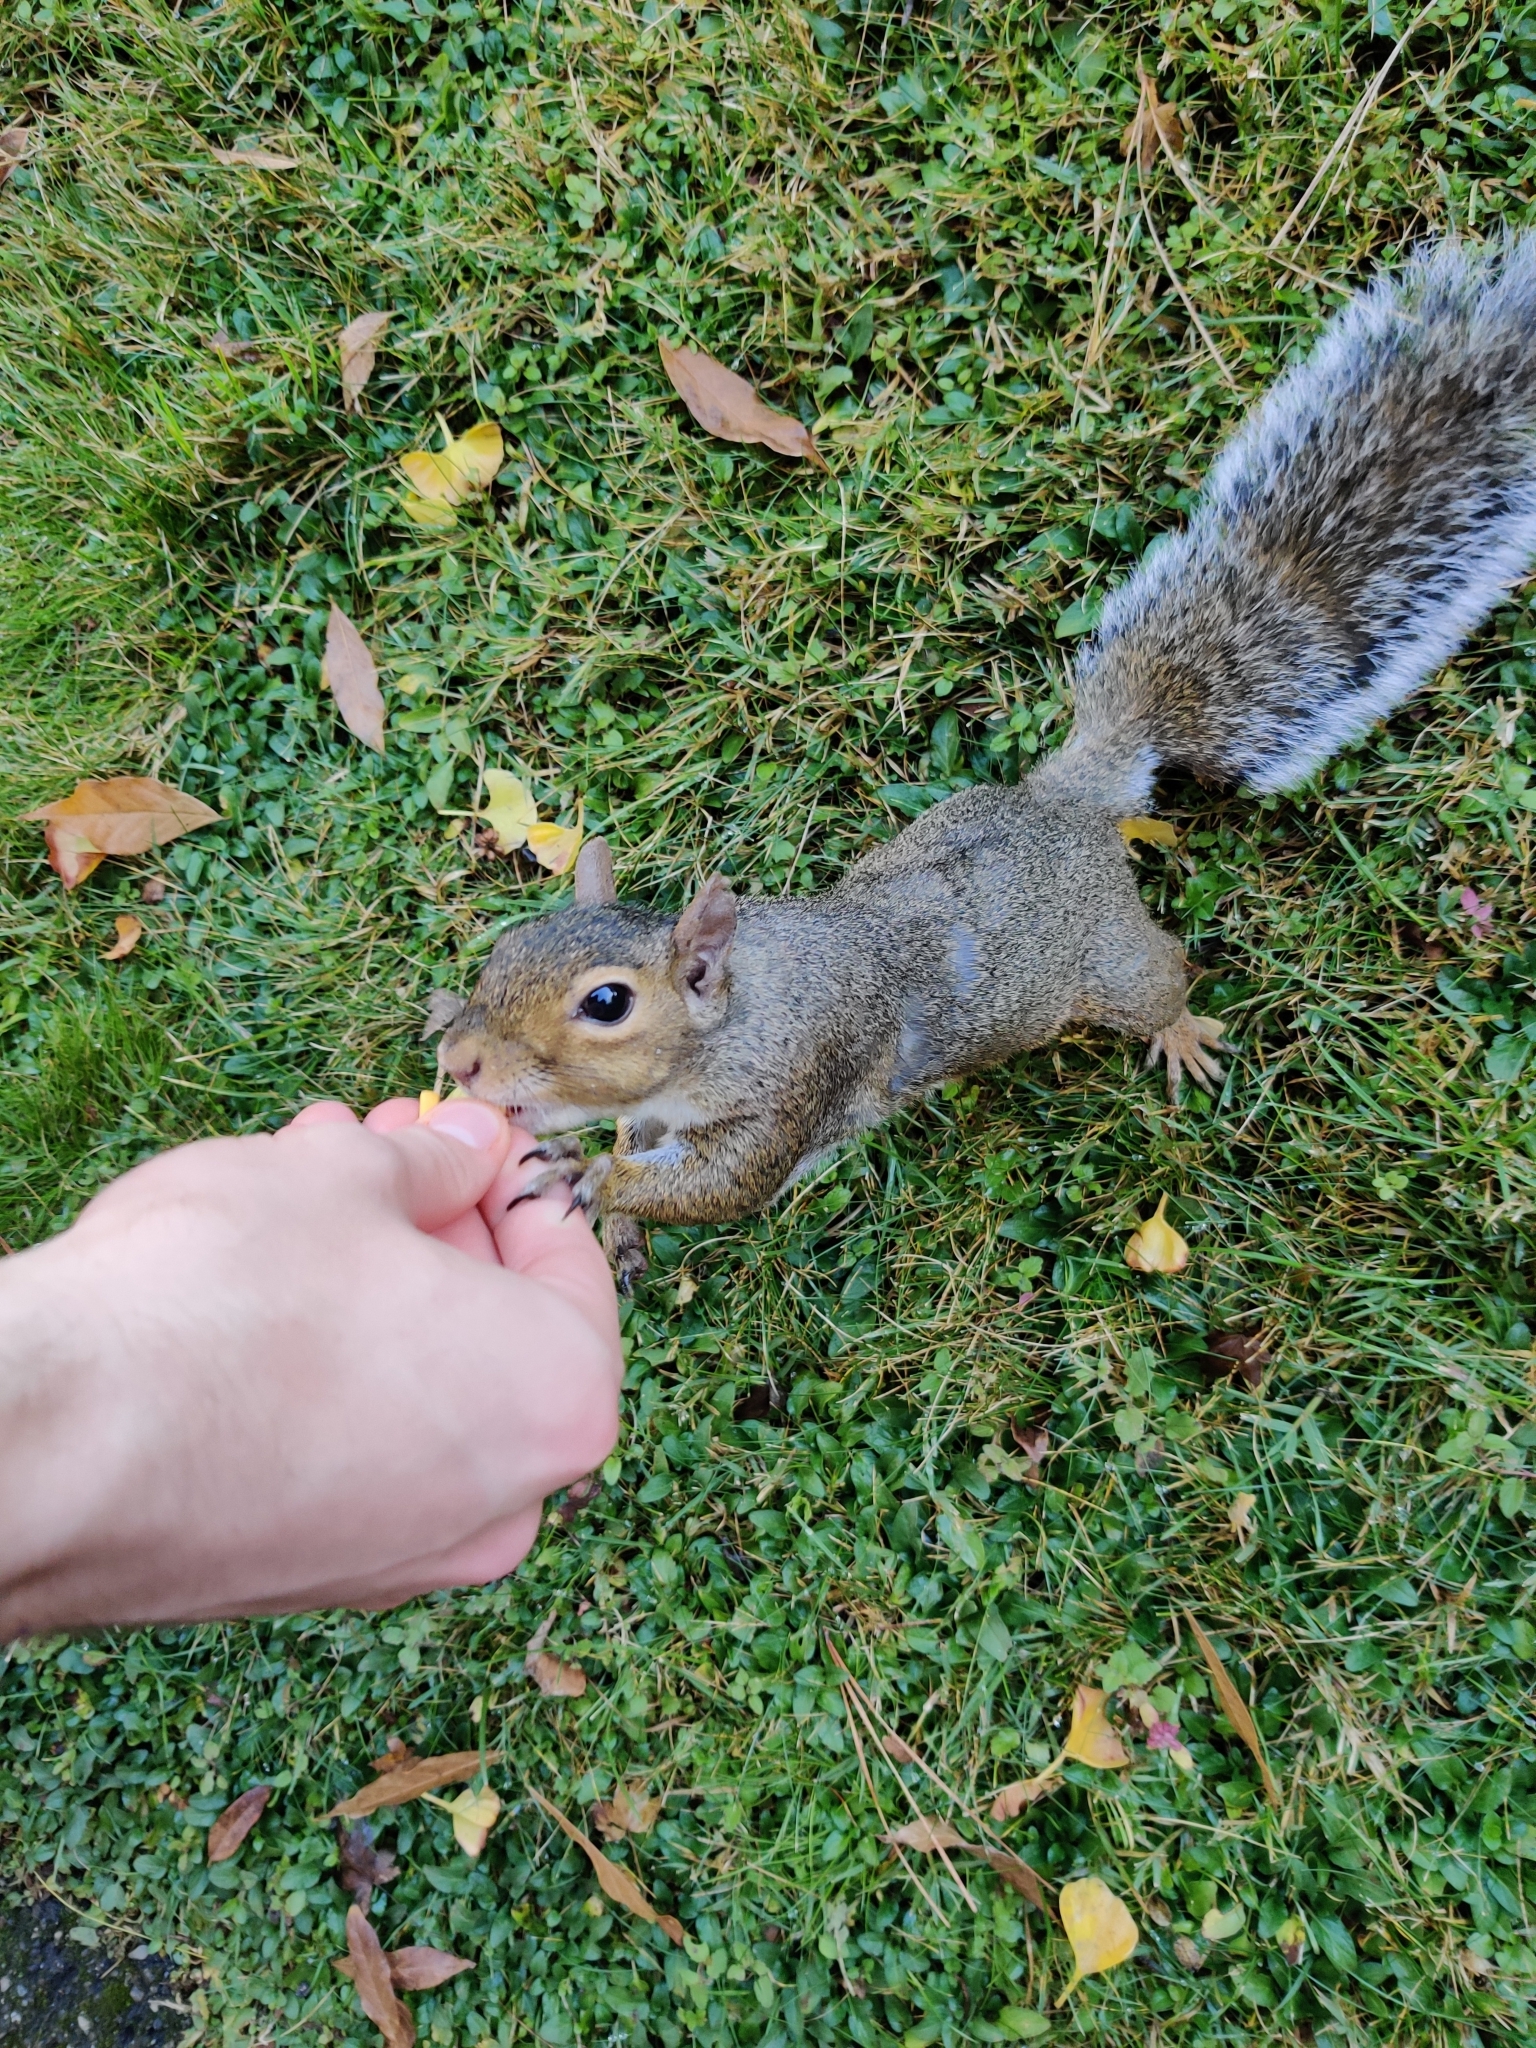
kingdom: Animalia
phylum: Chordata
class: Mammalia
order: Rodentia
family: Sciuridae
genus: Sciurus
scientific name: Sciurus carolinensis
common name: Eastern gray squirrel
